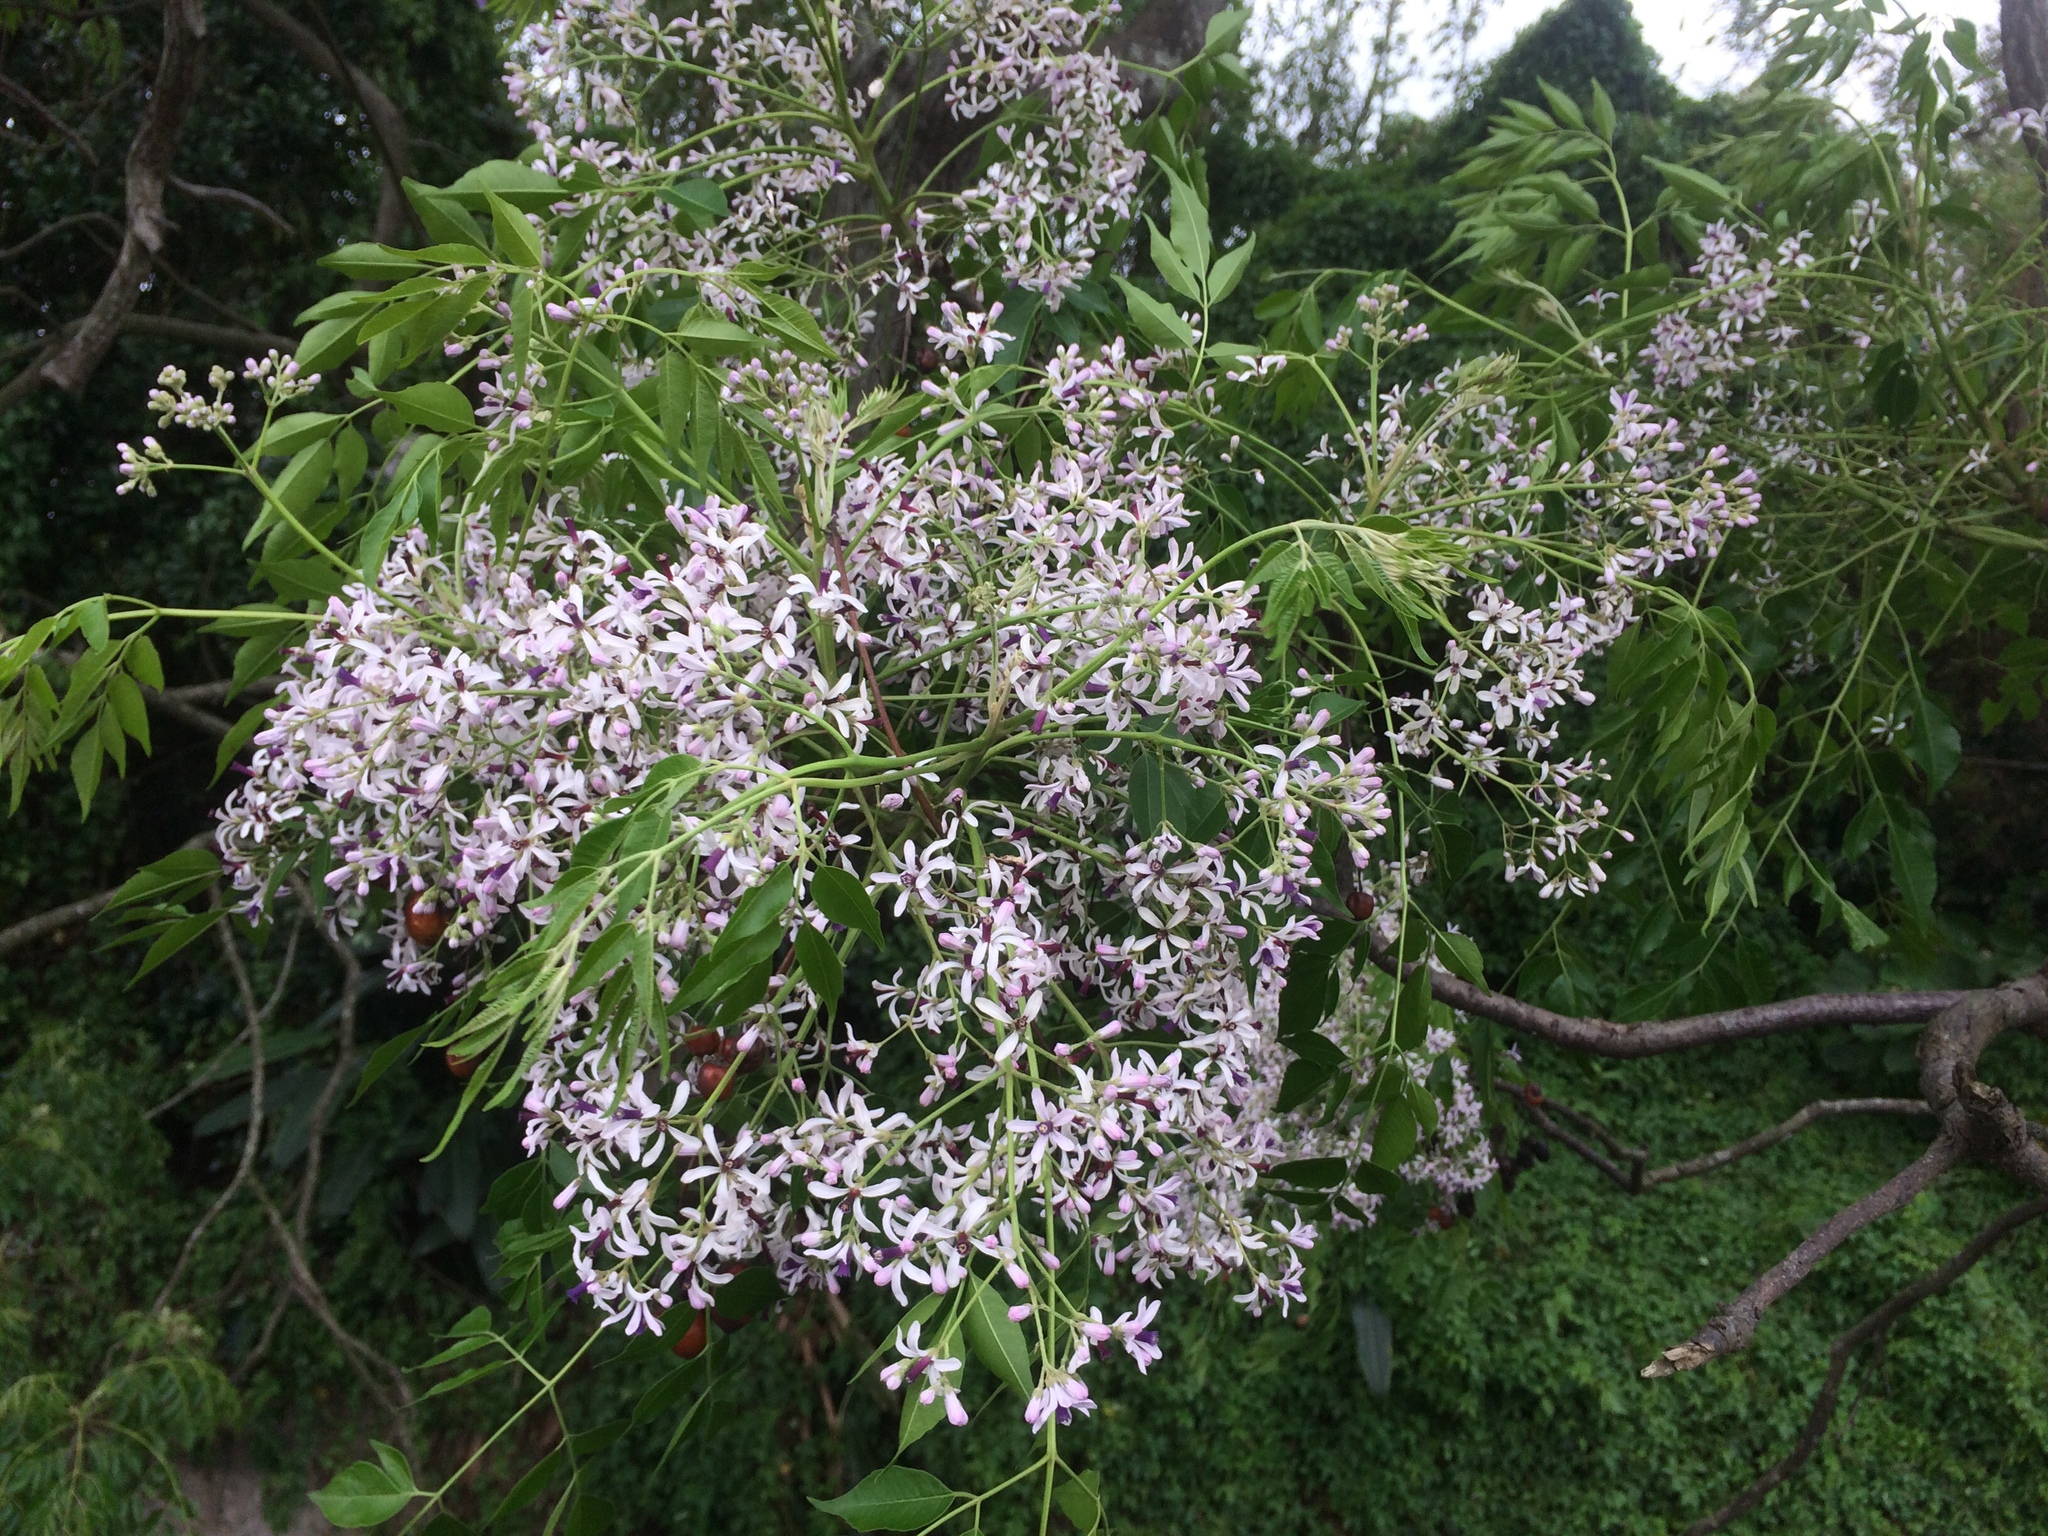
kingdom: Plantae
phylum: Tracheophyta
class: Magnoliopsida
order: Sapindales
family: Meliaceae
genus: Melia
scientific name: Melia azedarach
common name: Chinaberrytree
